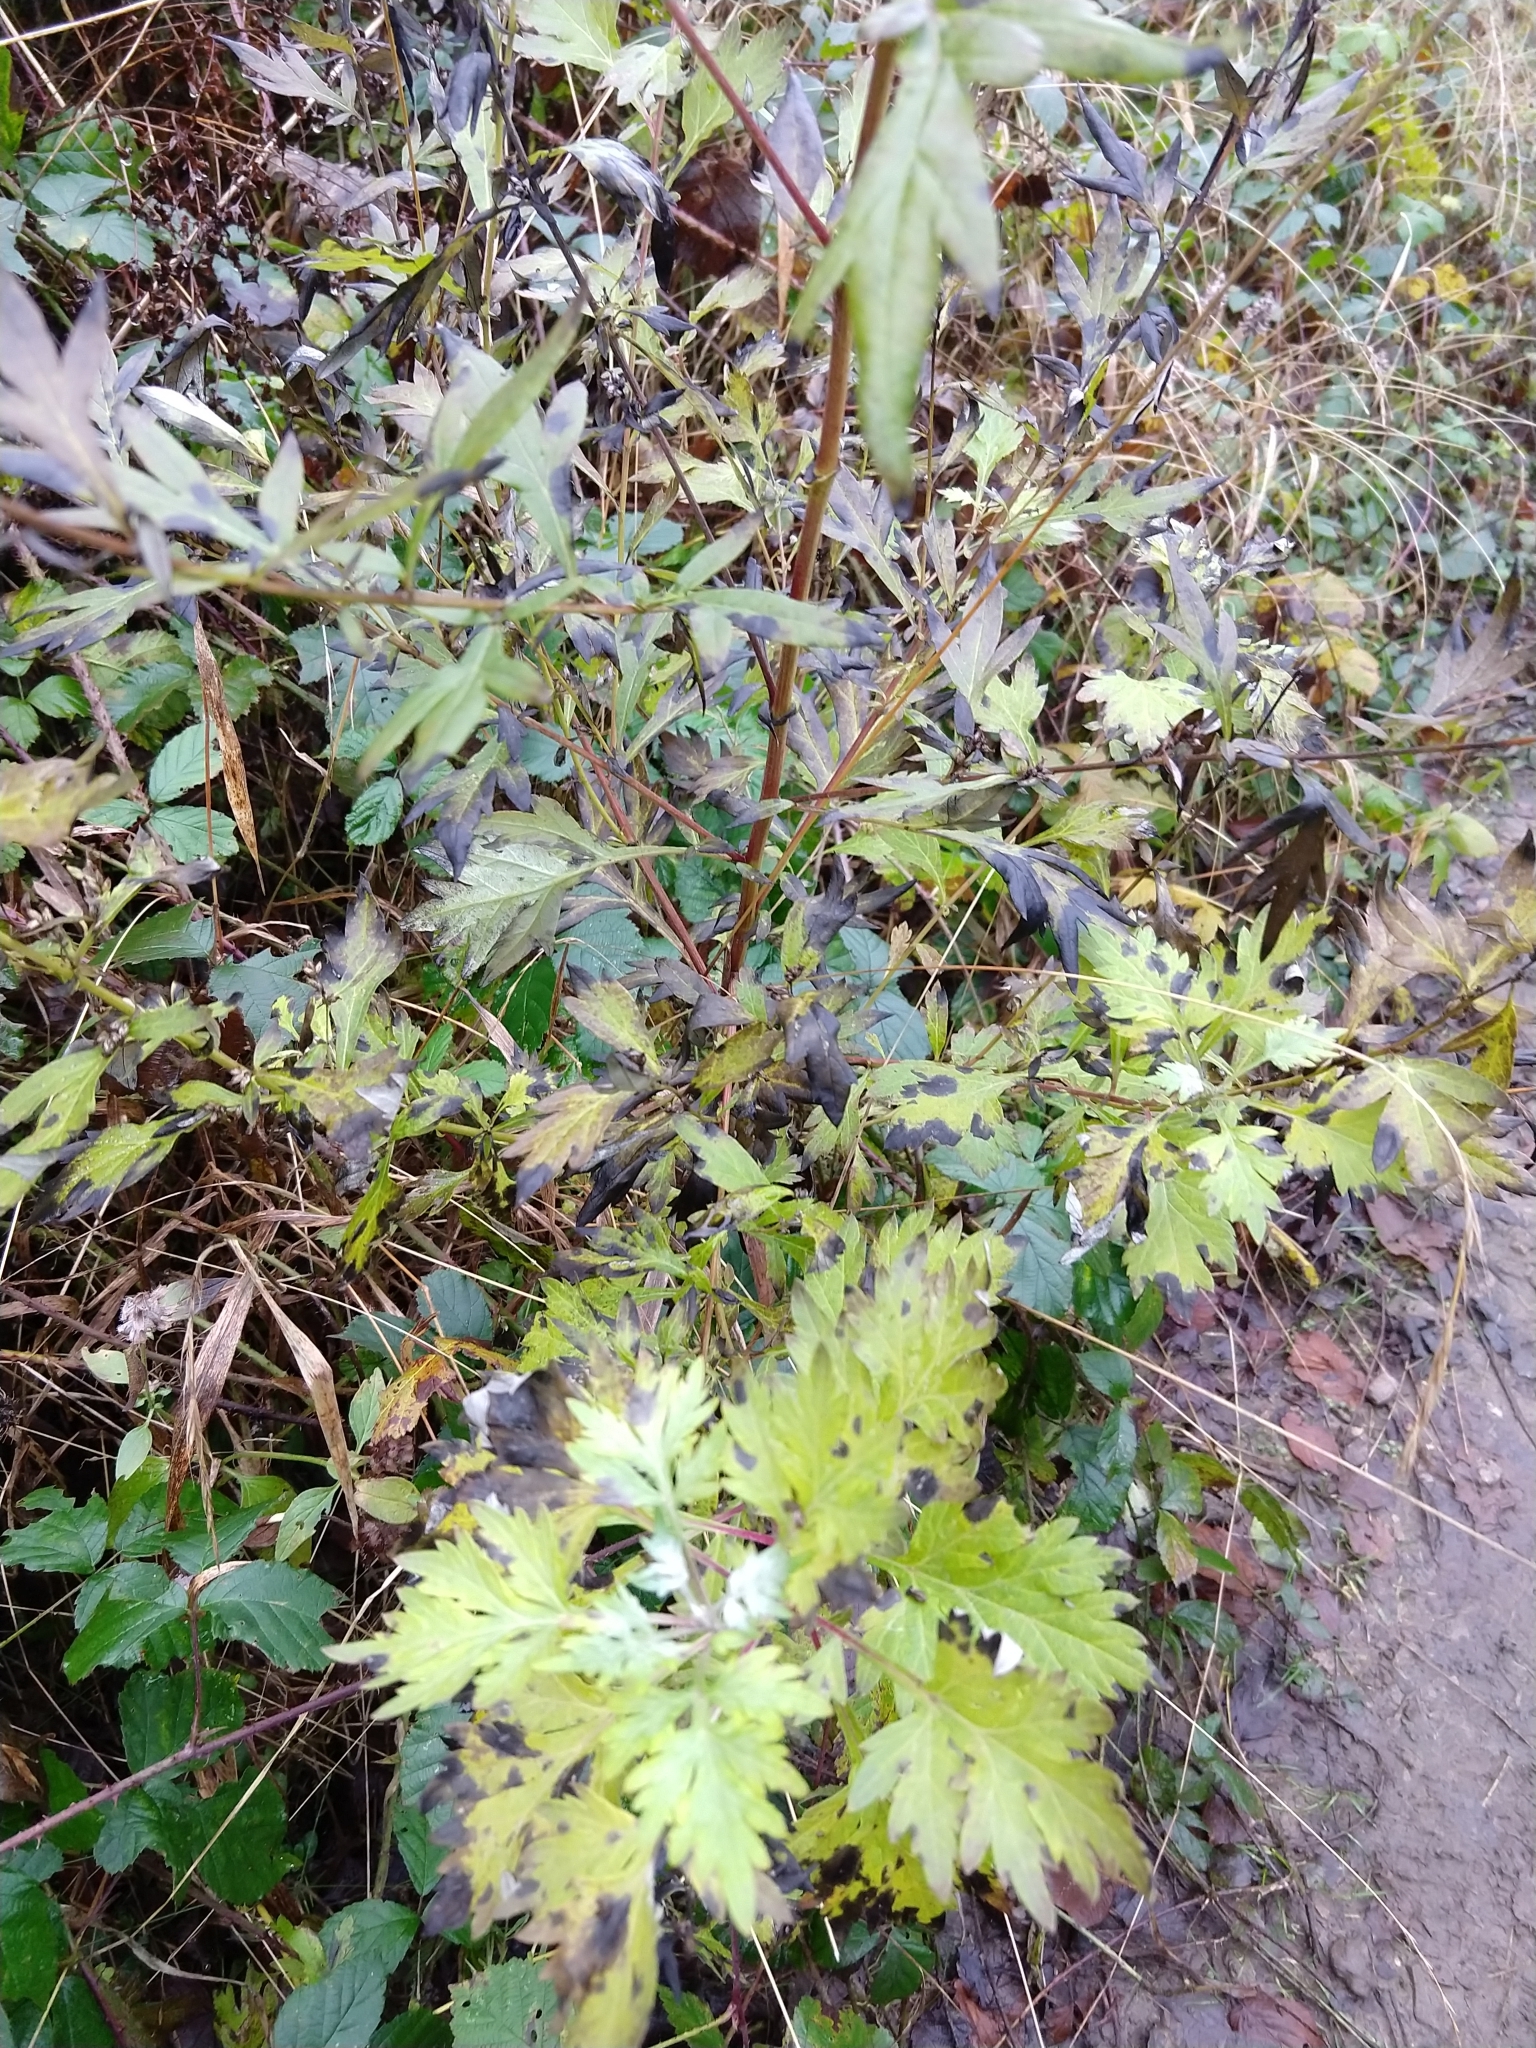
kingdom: Plantae
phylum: Tracheophyta
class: Magnoliopsida
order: Asterales
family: Asteraceae
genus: Artemisia
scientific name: Artemisia vulgaris
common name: Mugwort
